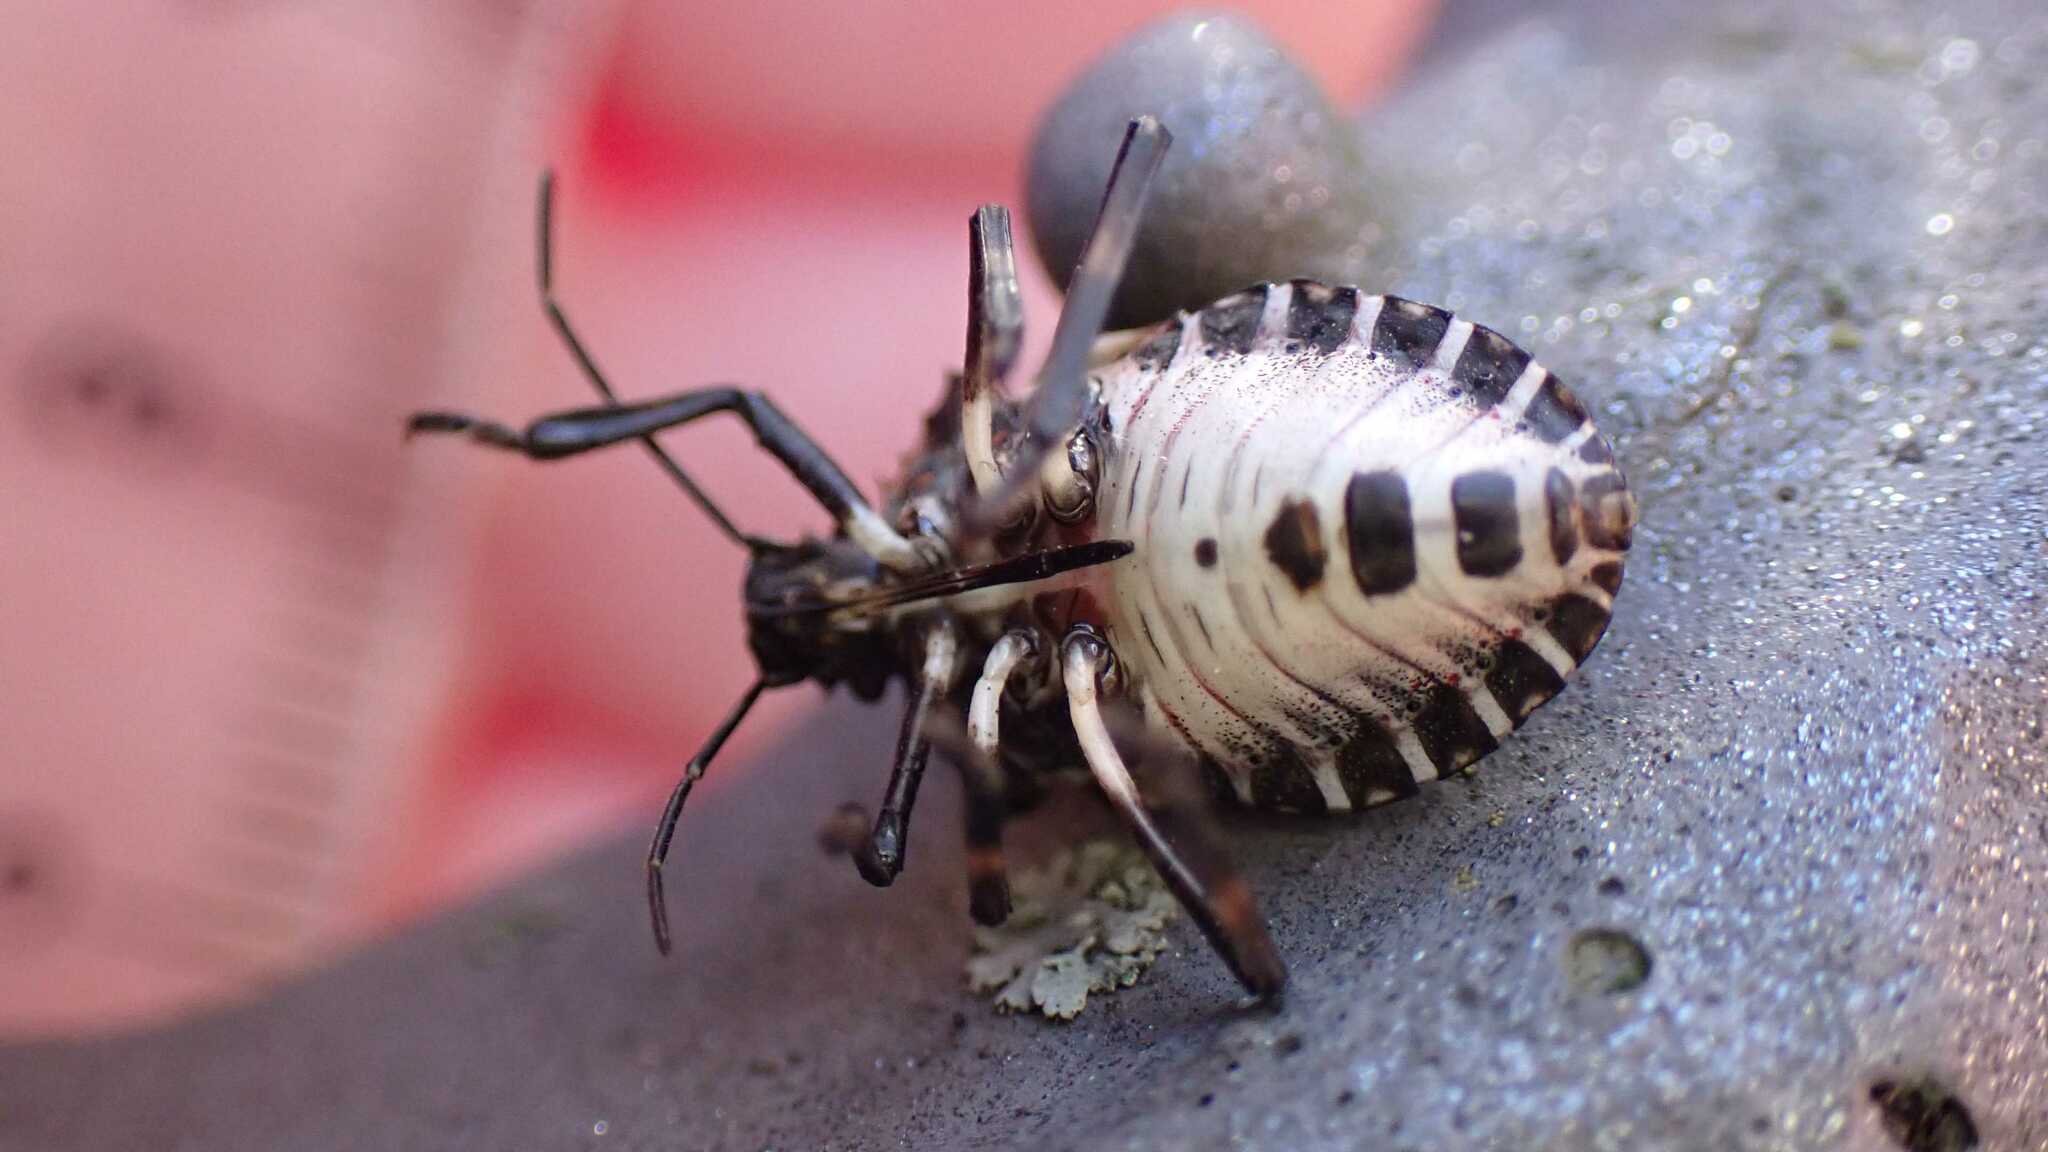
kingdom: Animalia
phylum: Arthropoda
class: Insecta
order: Hemiptera
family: Pentatomidae
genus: Halyomorpha
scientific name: Halyomorpha halys
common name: Brown marmorated stink bug
